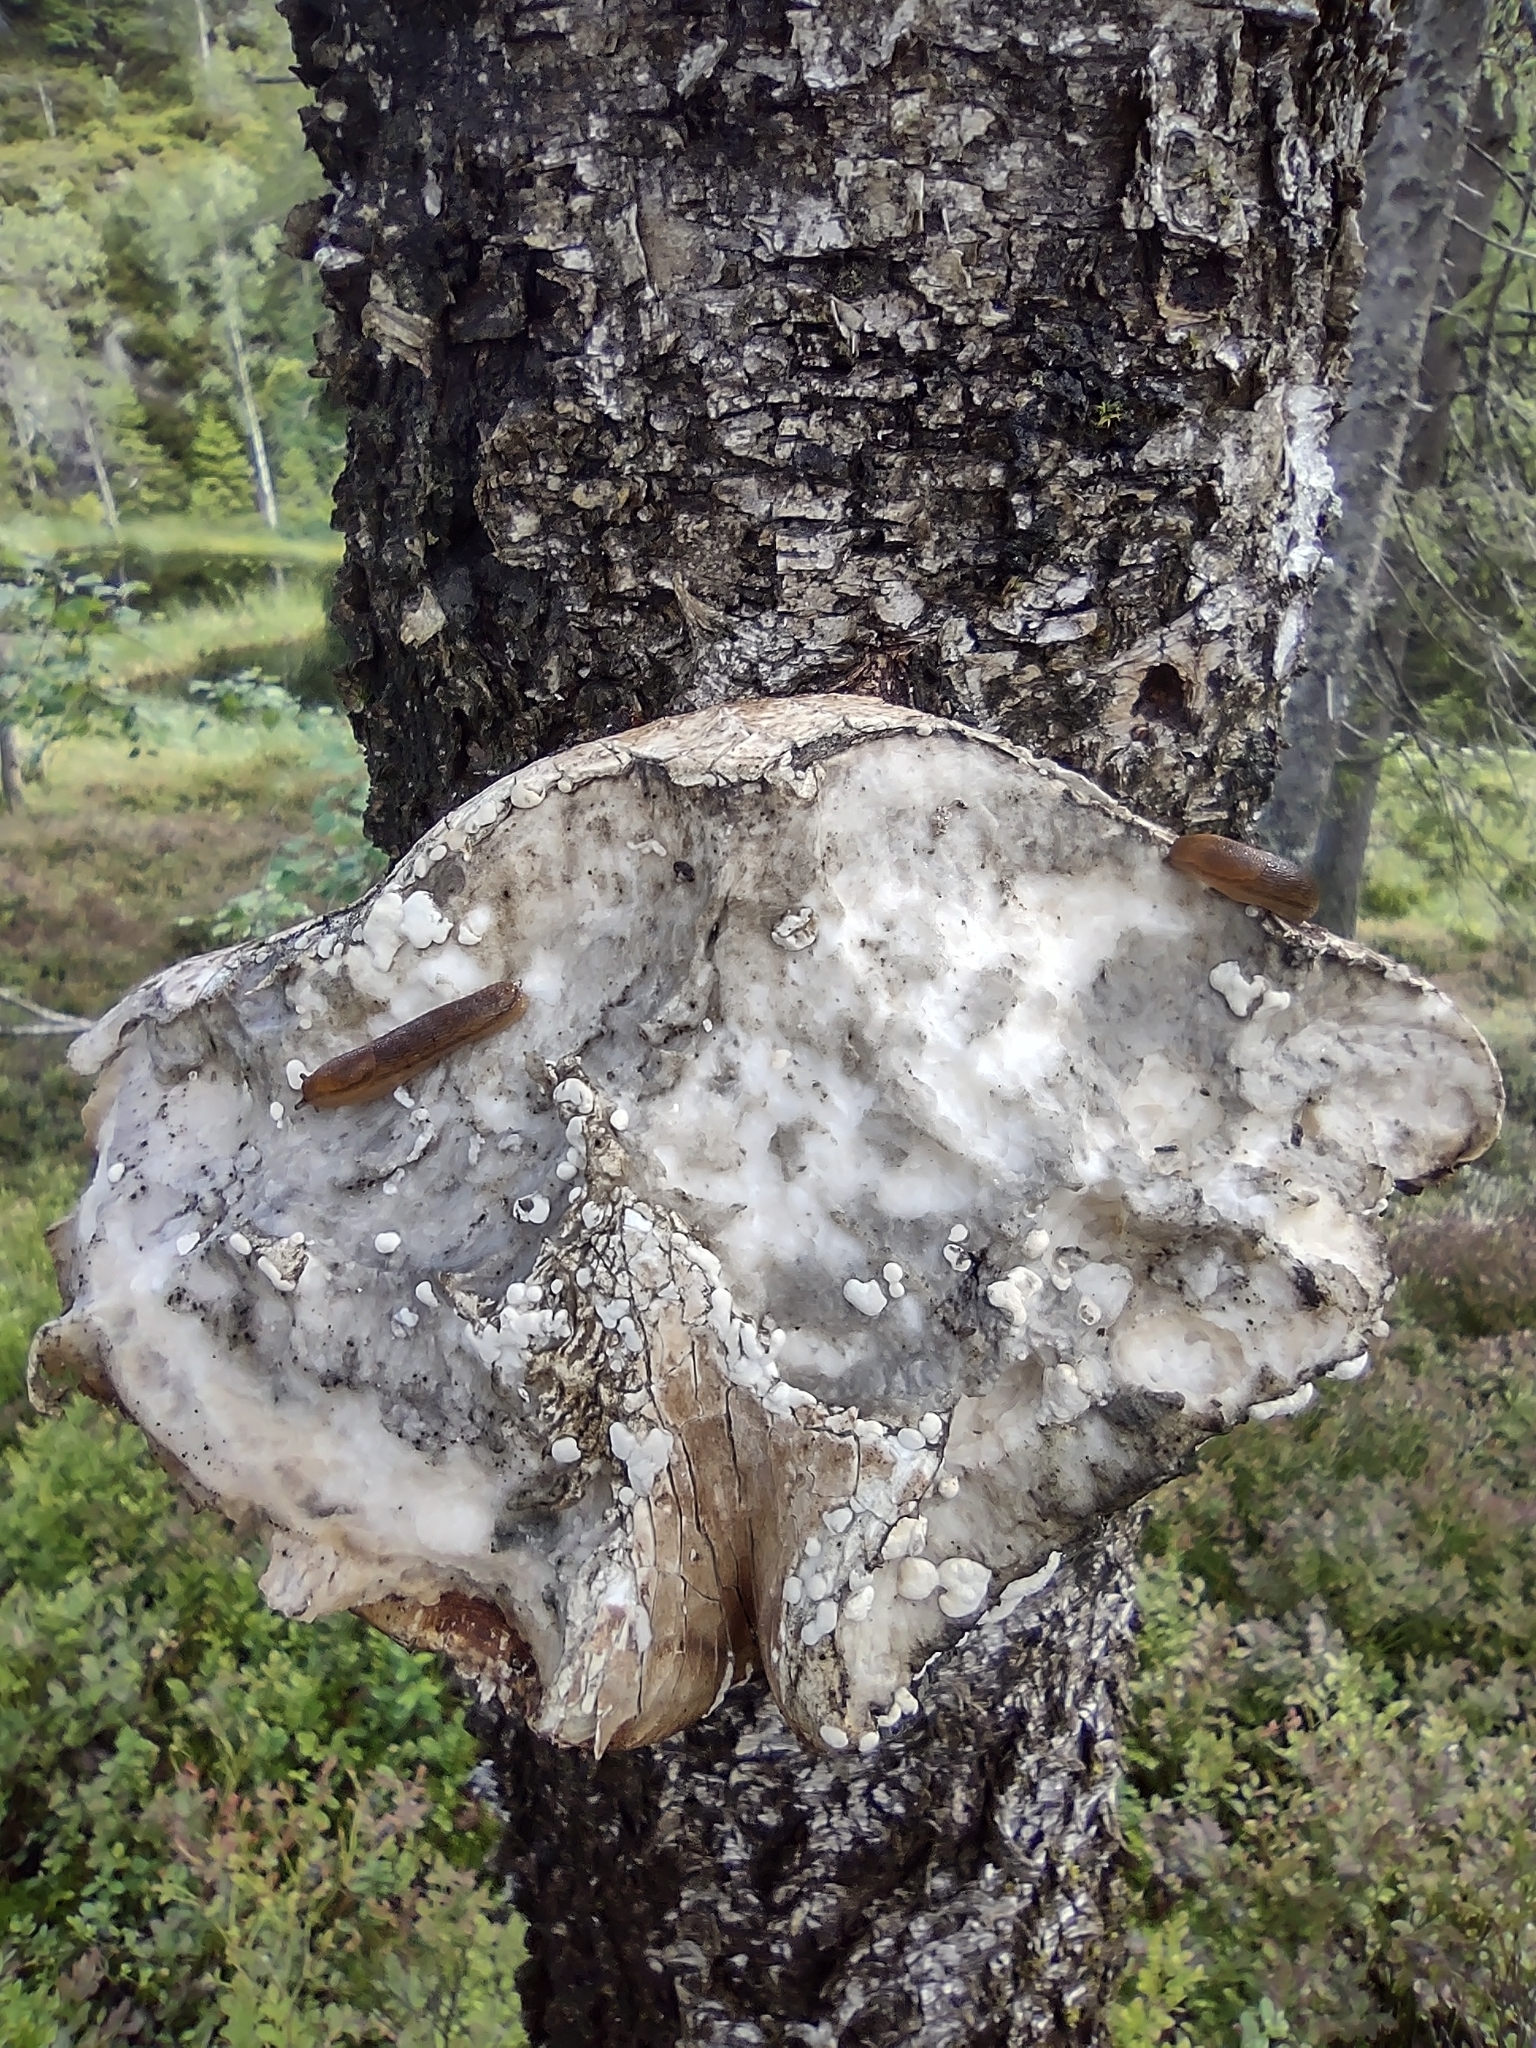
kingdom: Fungi
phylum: Basidiomycota
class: Agaricomycetes
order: Polyporales
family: Fomitopsidaceae
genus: Fomitopsis
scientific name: Fomitopsis betulina
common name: Birch polypore
